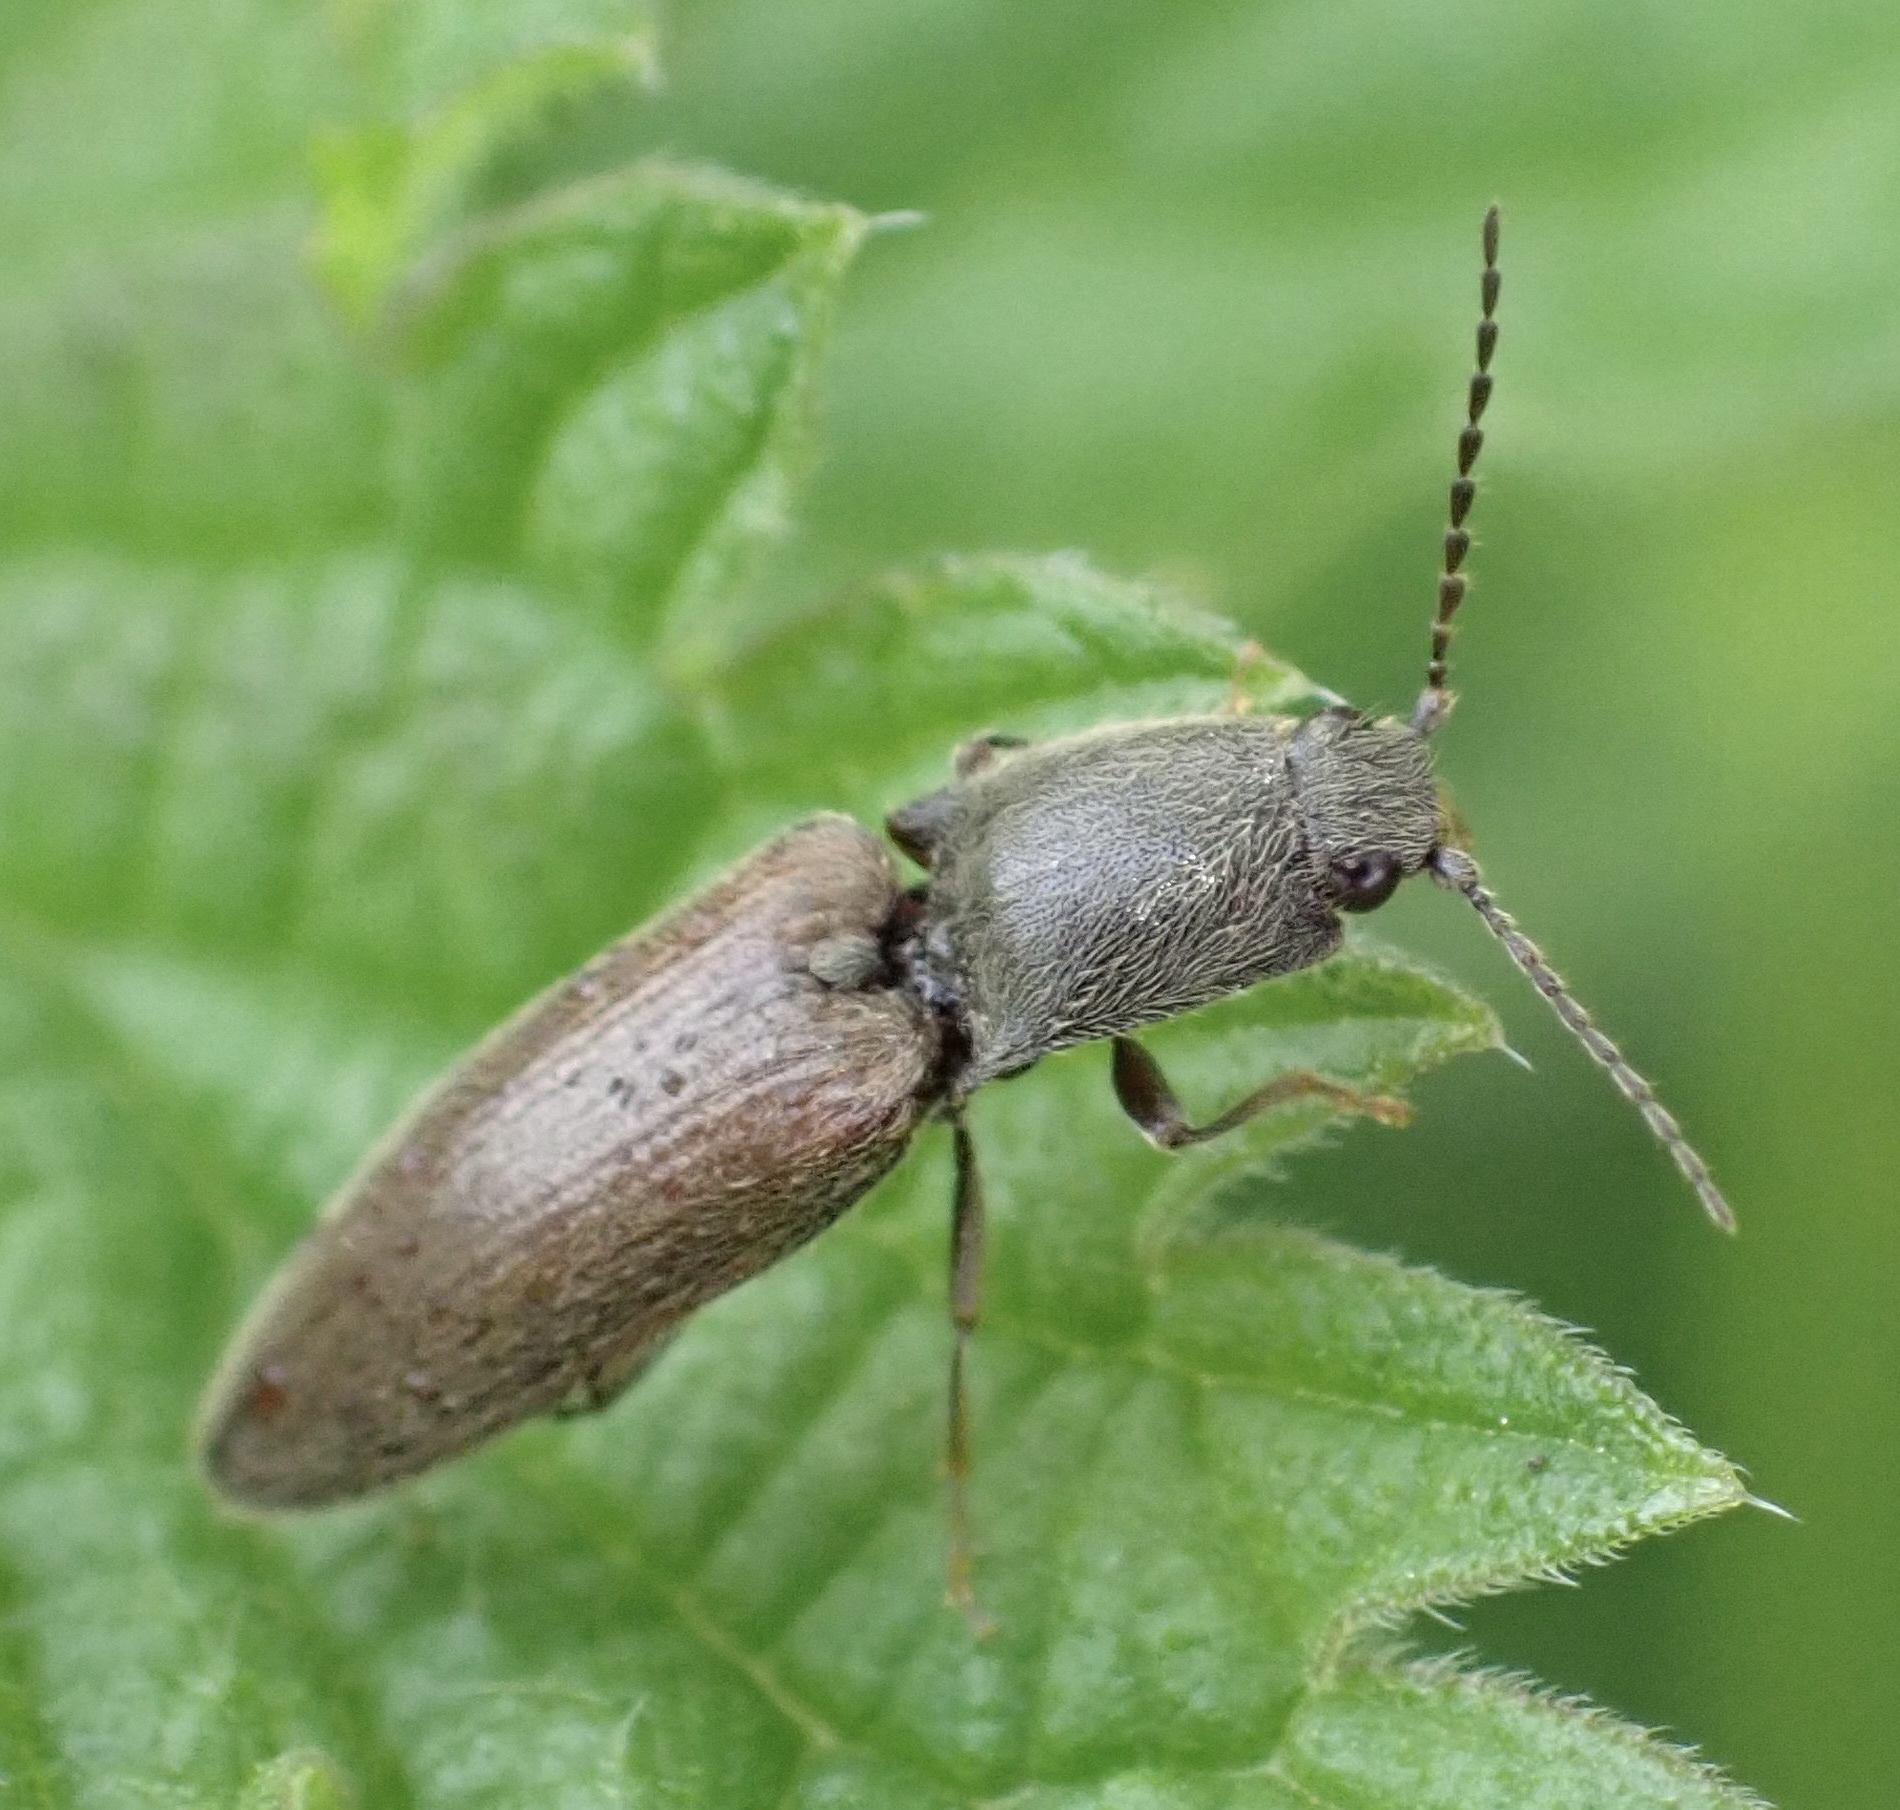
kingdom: Animalia
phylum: Arthropoda
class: Insecta
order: Coleoptera
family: Elateridae
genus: Athous
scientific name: Athous haemorrhoidalis
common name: Red-brown click beetle
